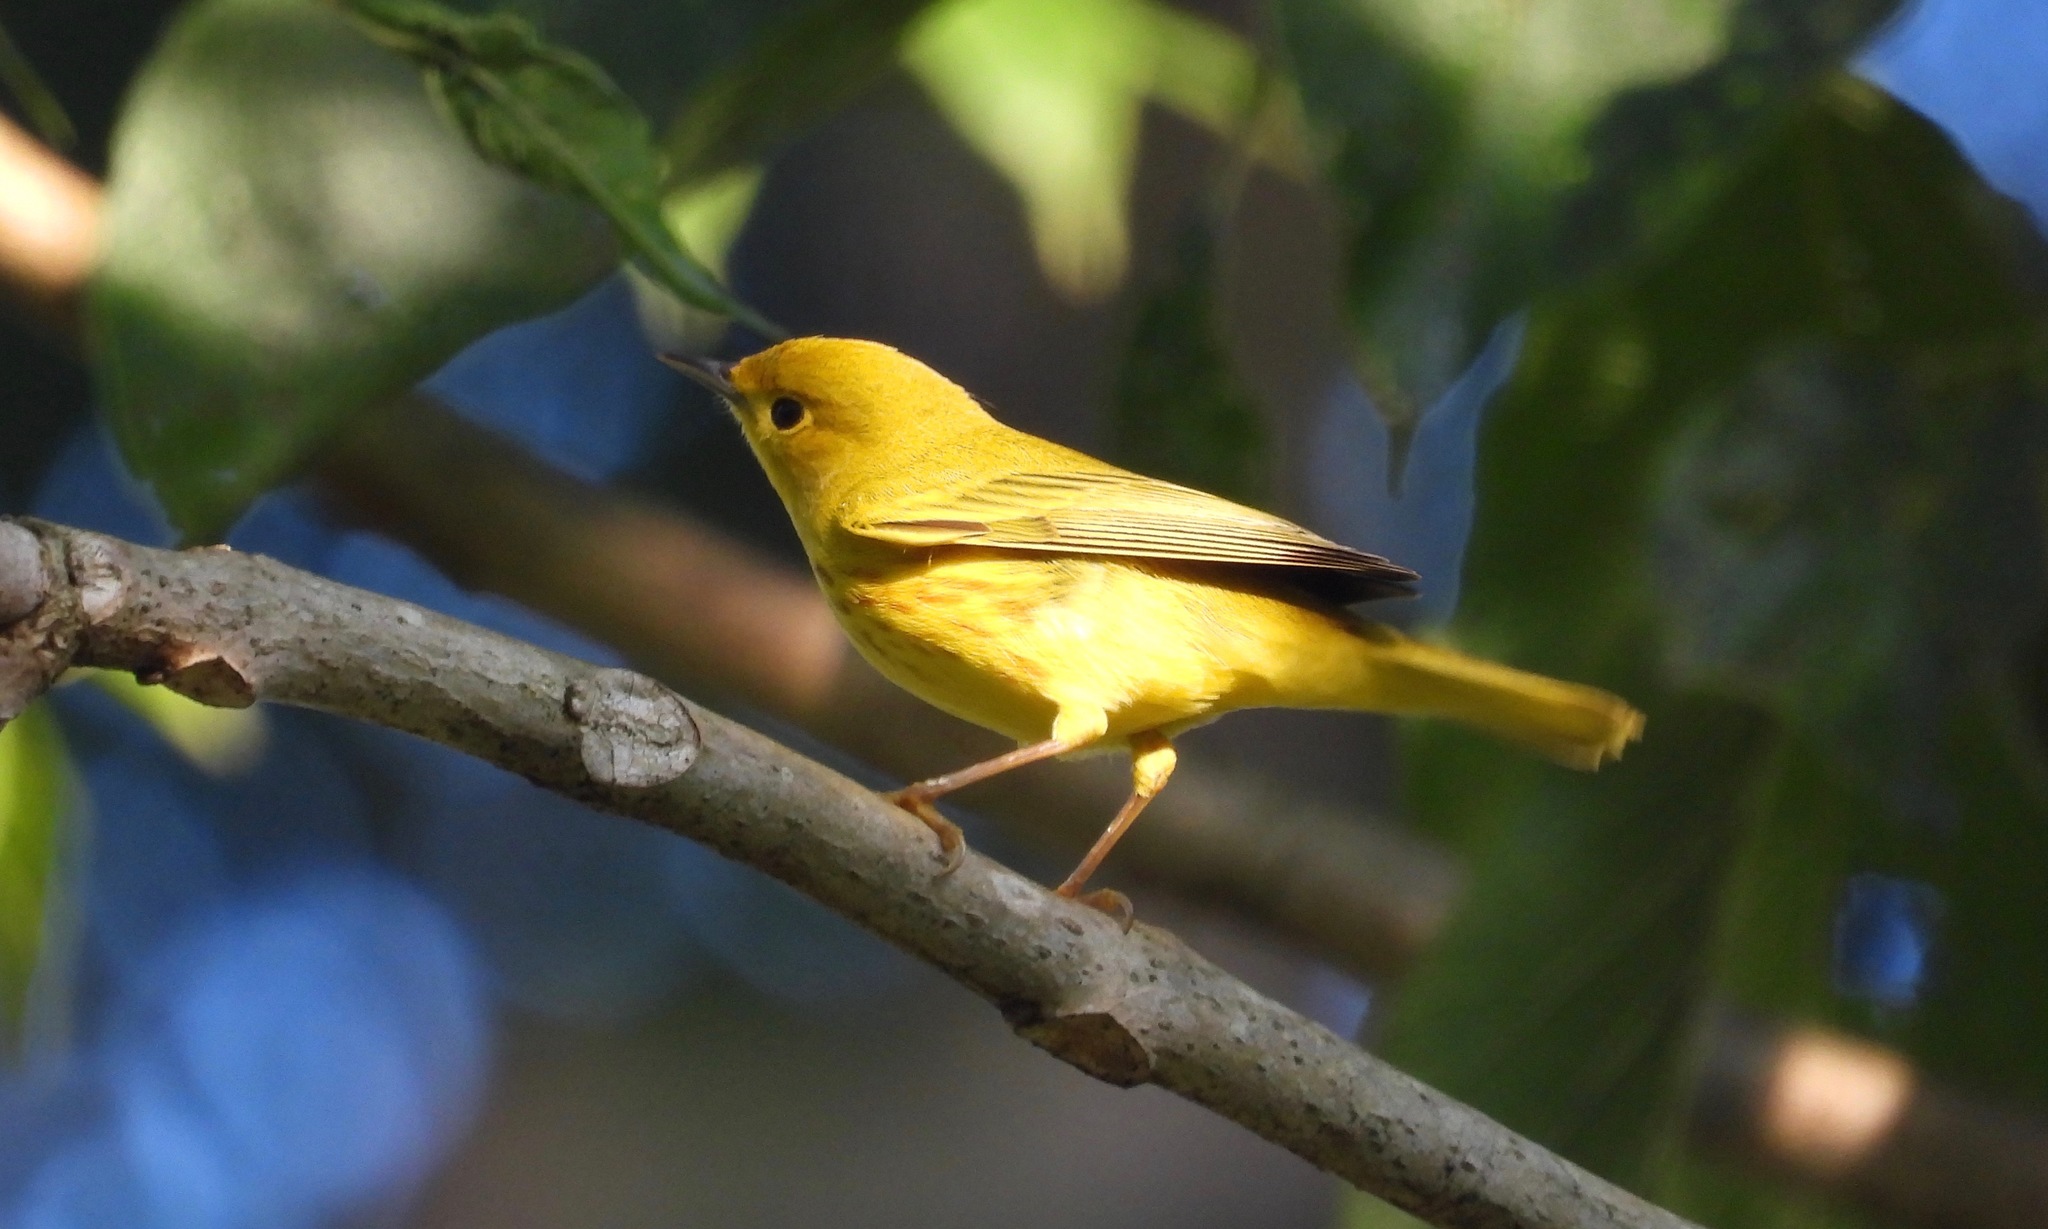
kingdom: Animalia
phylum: Chordata
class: Aves
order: Passeriformes
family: Parulidae
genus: Setophaga
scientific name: Setophaga petechia
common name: Yellow warbler
